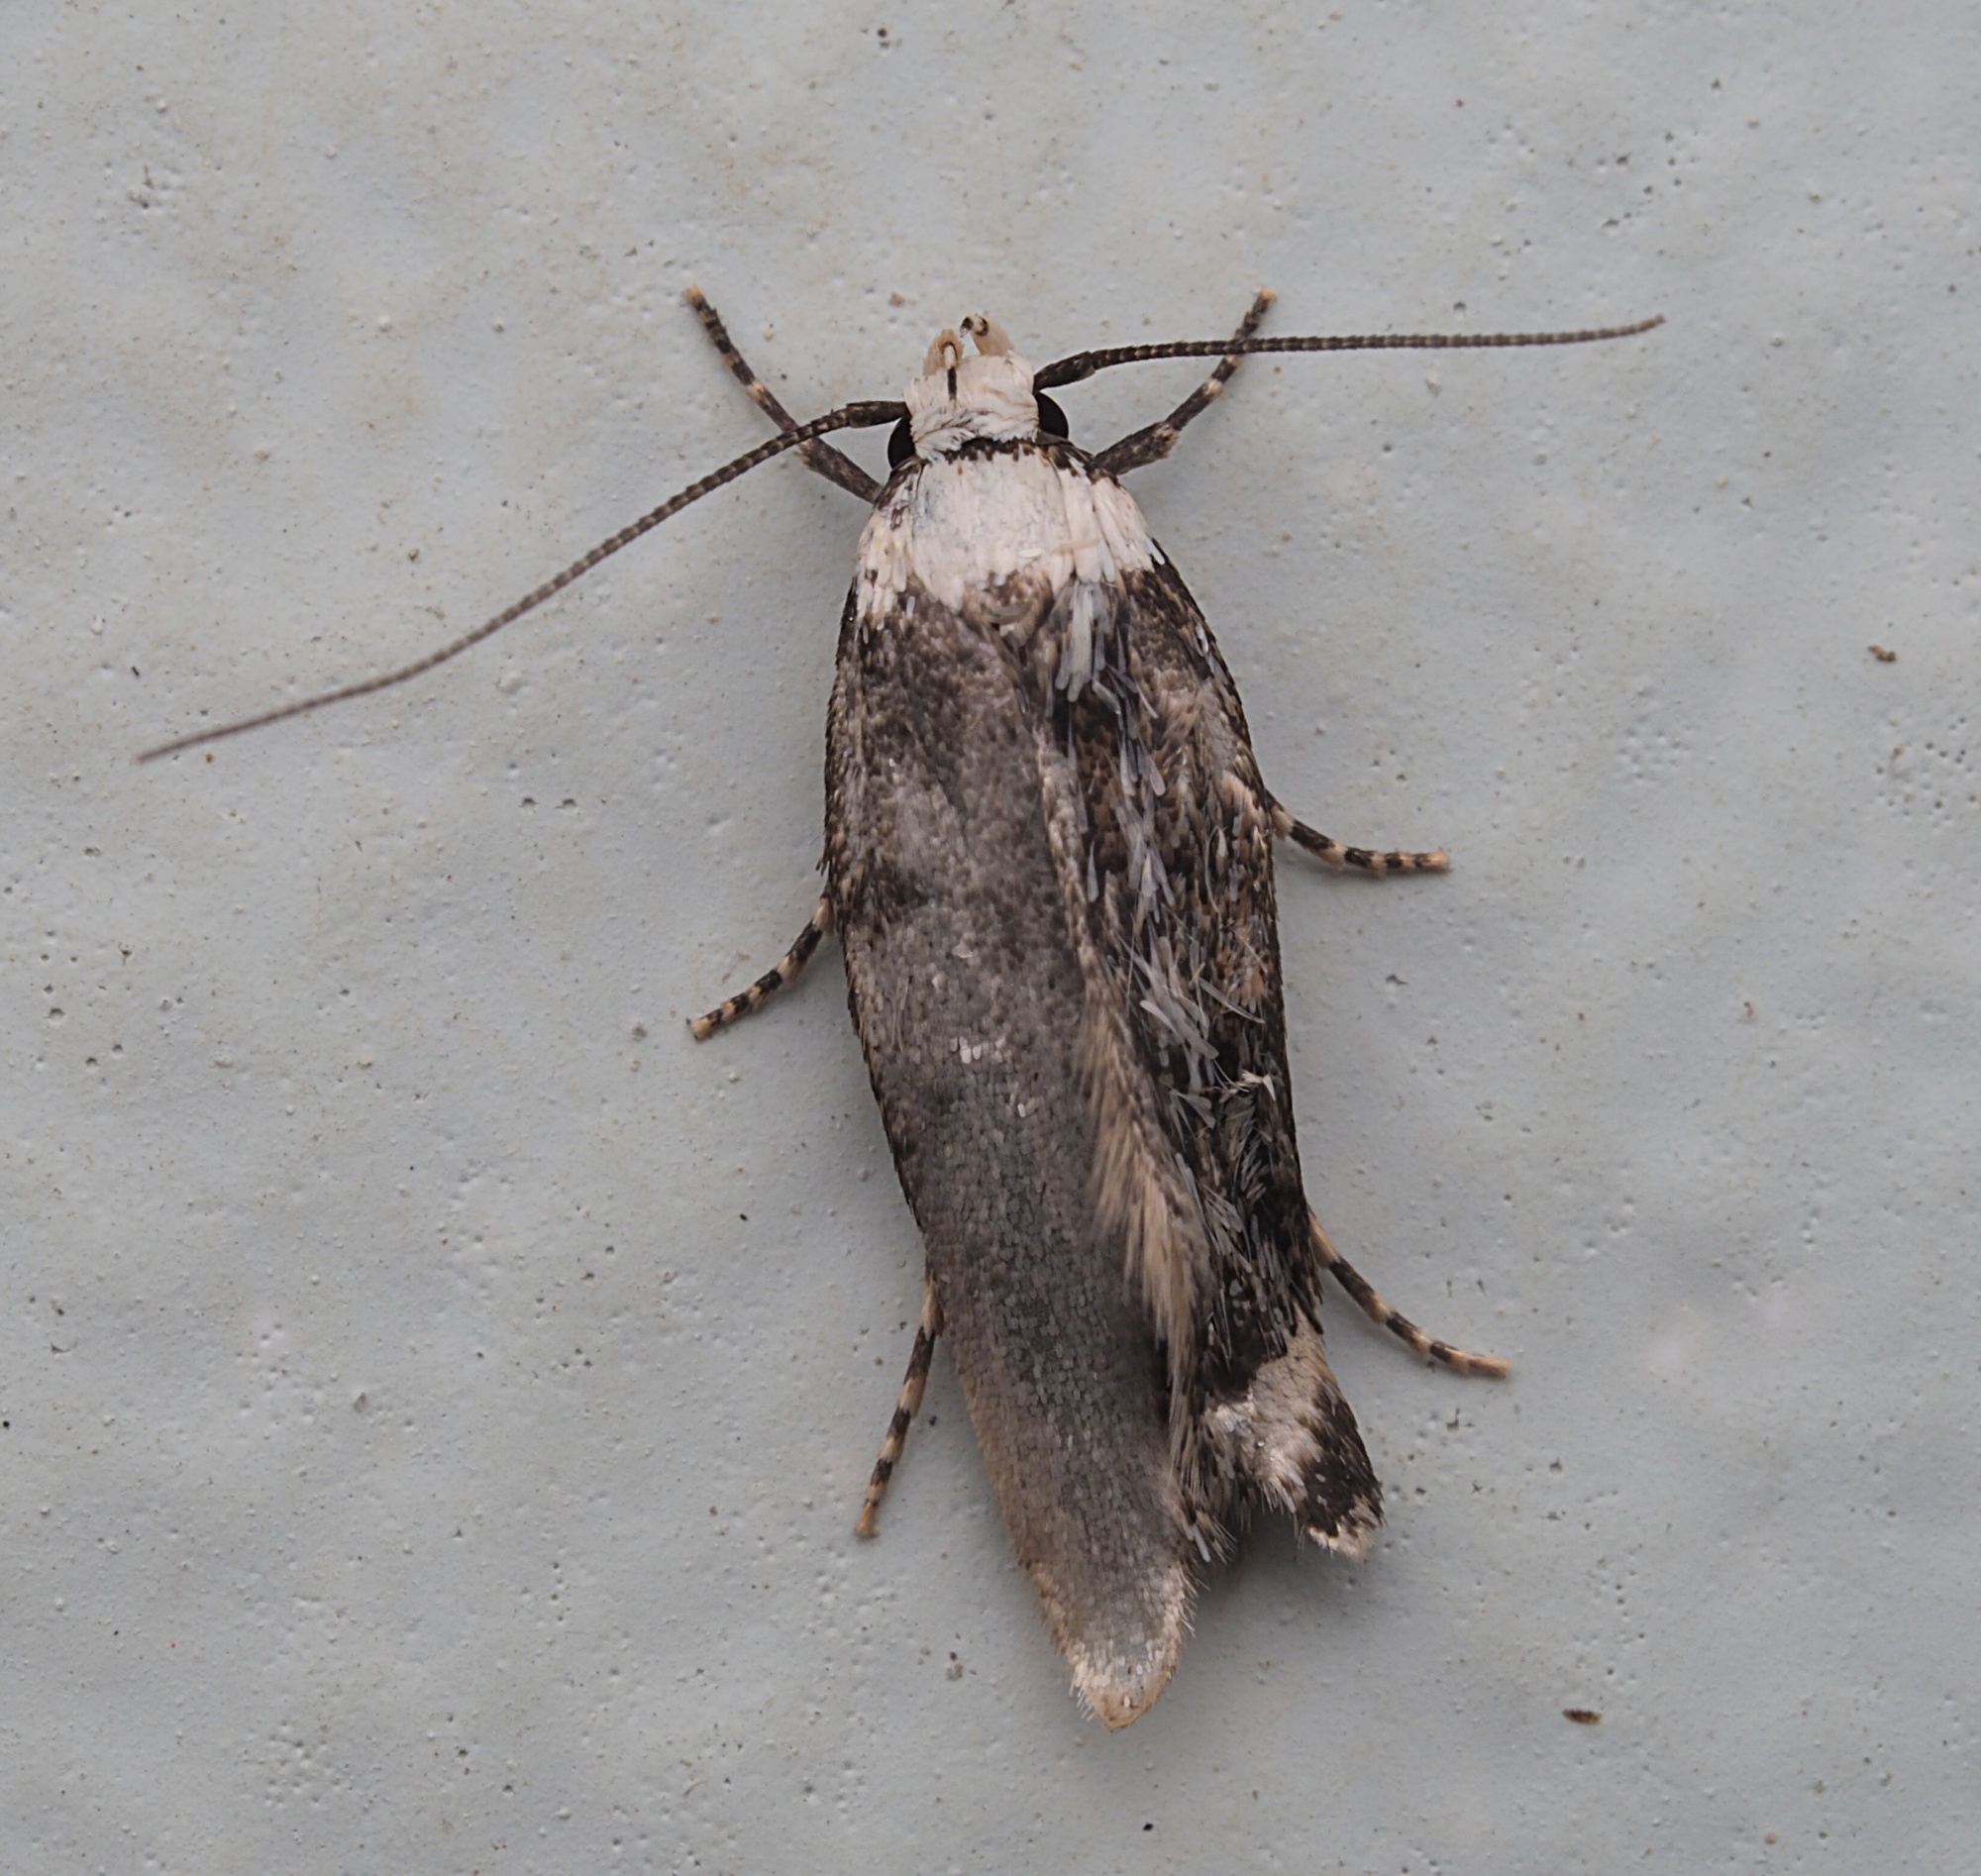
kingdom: Animalia
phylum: Arthropoda
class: Insecta
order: Lepidoptera
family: Oecophoridae
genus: Endrosis
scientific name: Endrosis sarcitrella
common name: White-shouldered house moth
